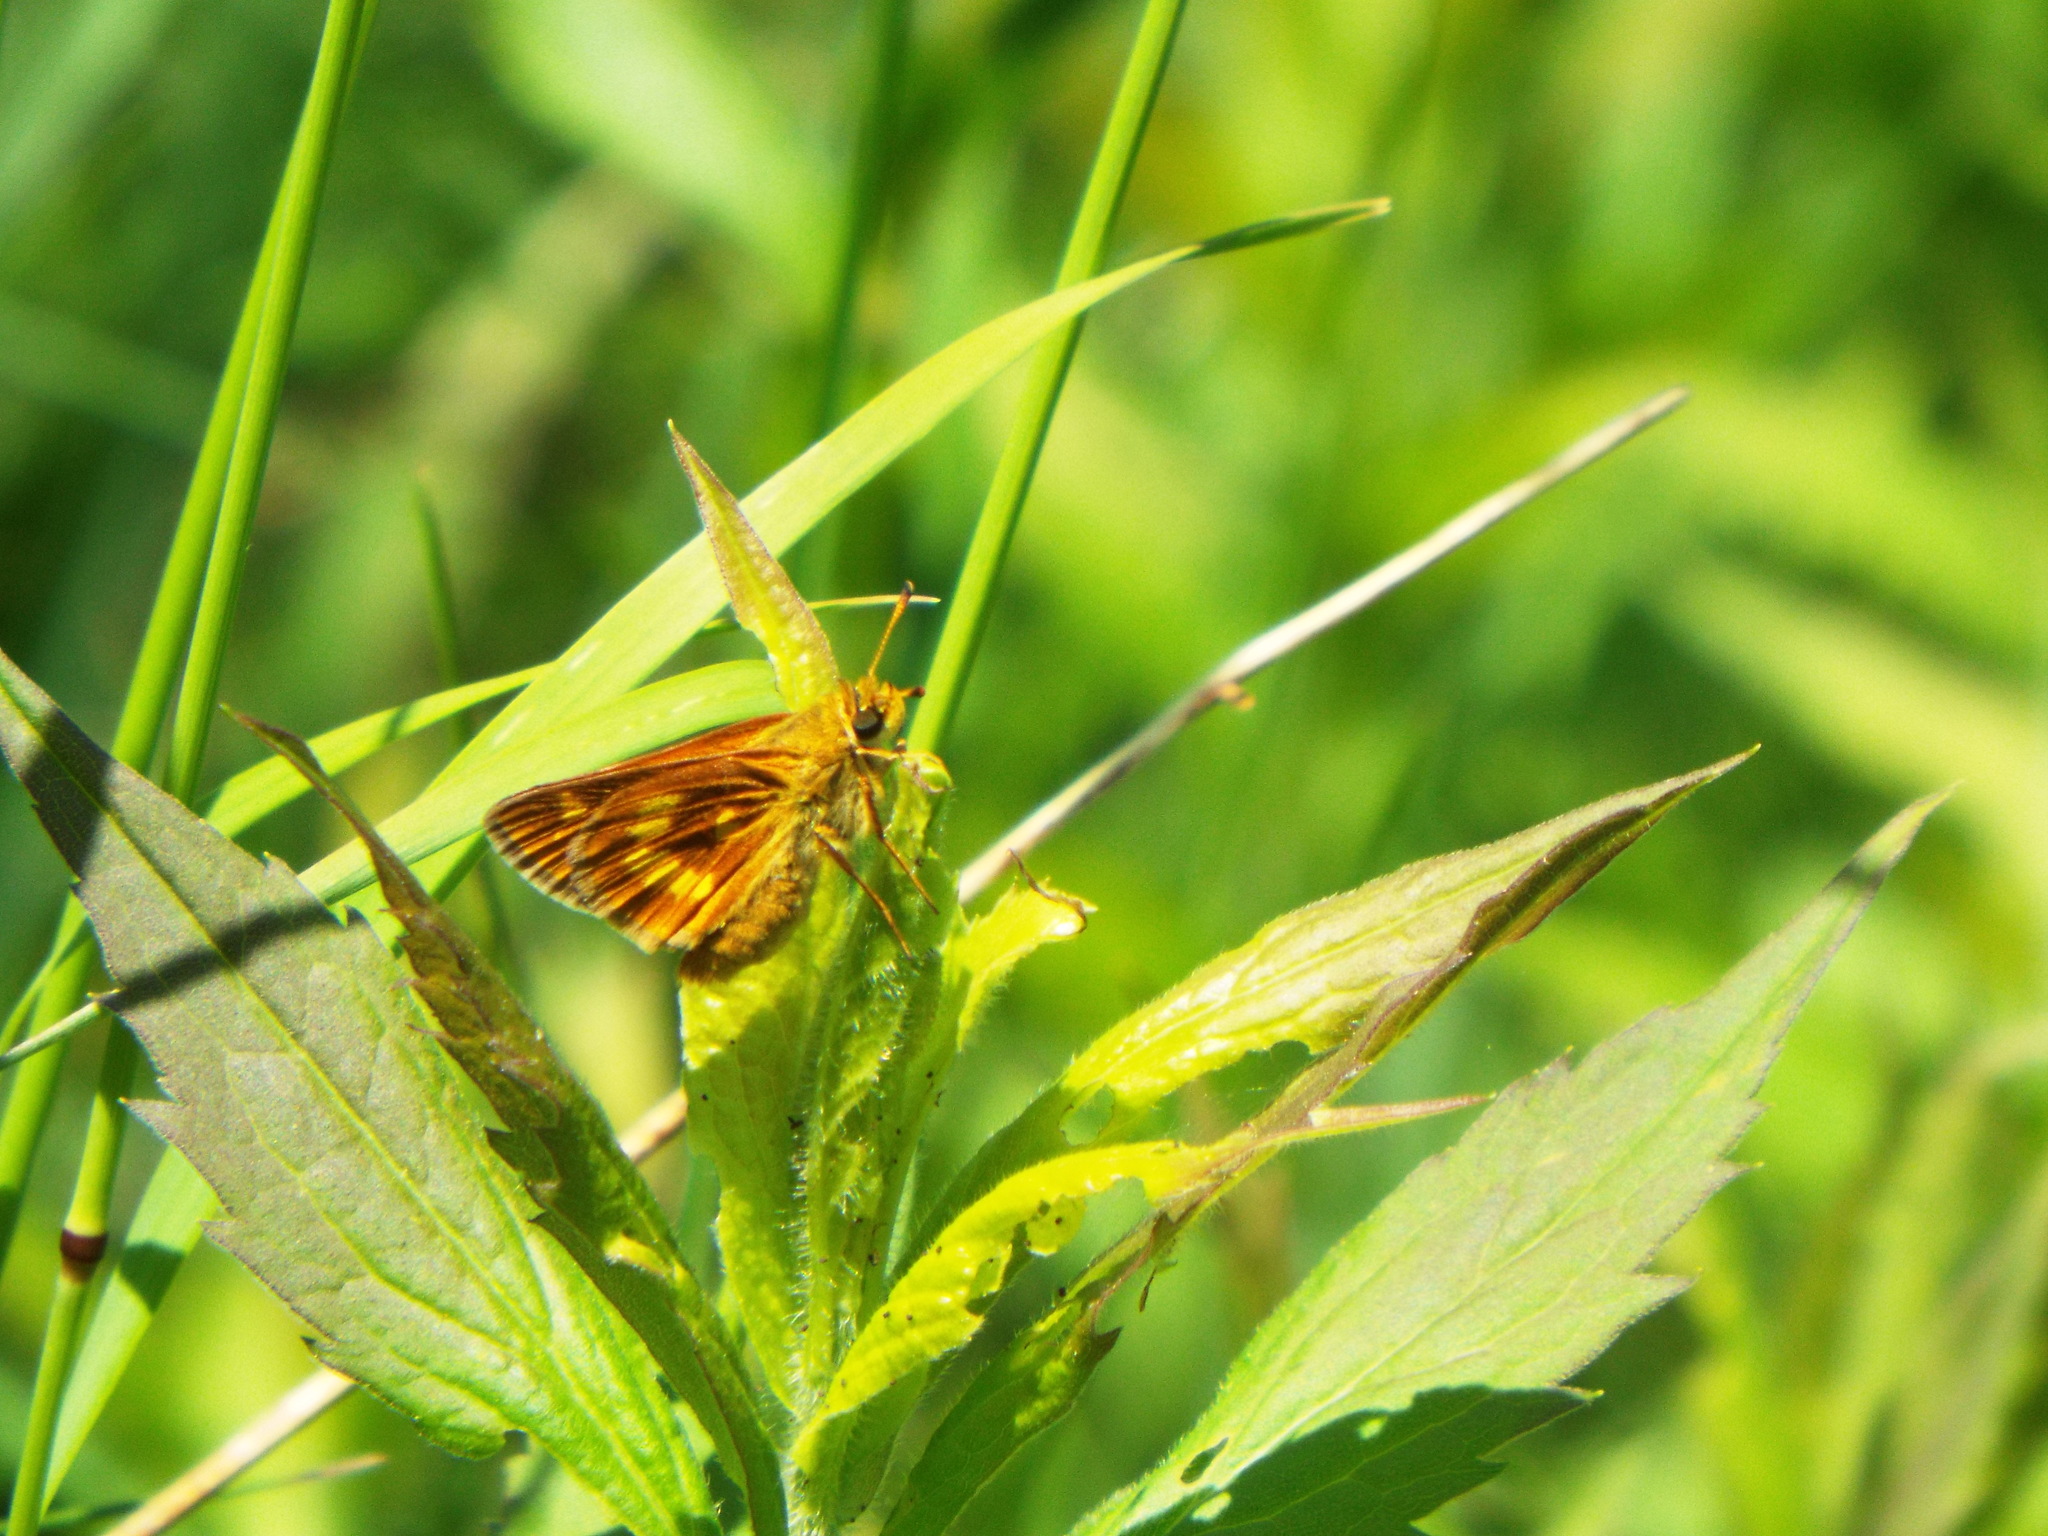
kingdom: Animalia
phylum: Arthropoda
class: Insecta
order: Lepidoptera
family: Hesperiidae
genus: Polites
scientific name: Polites mystic
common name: Long dash
